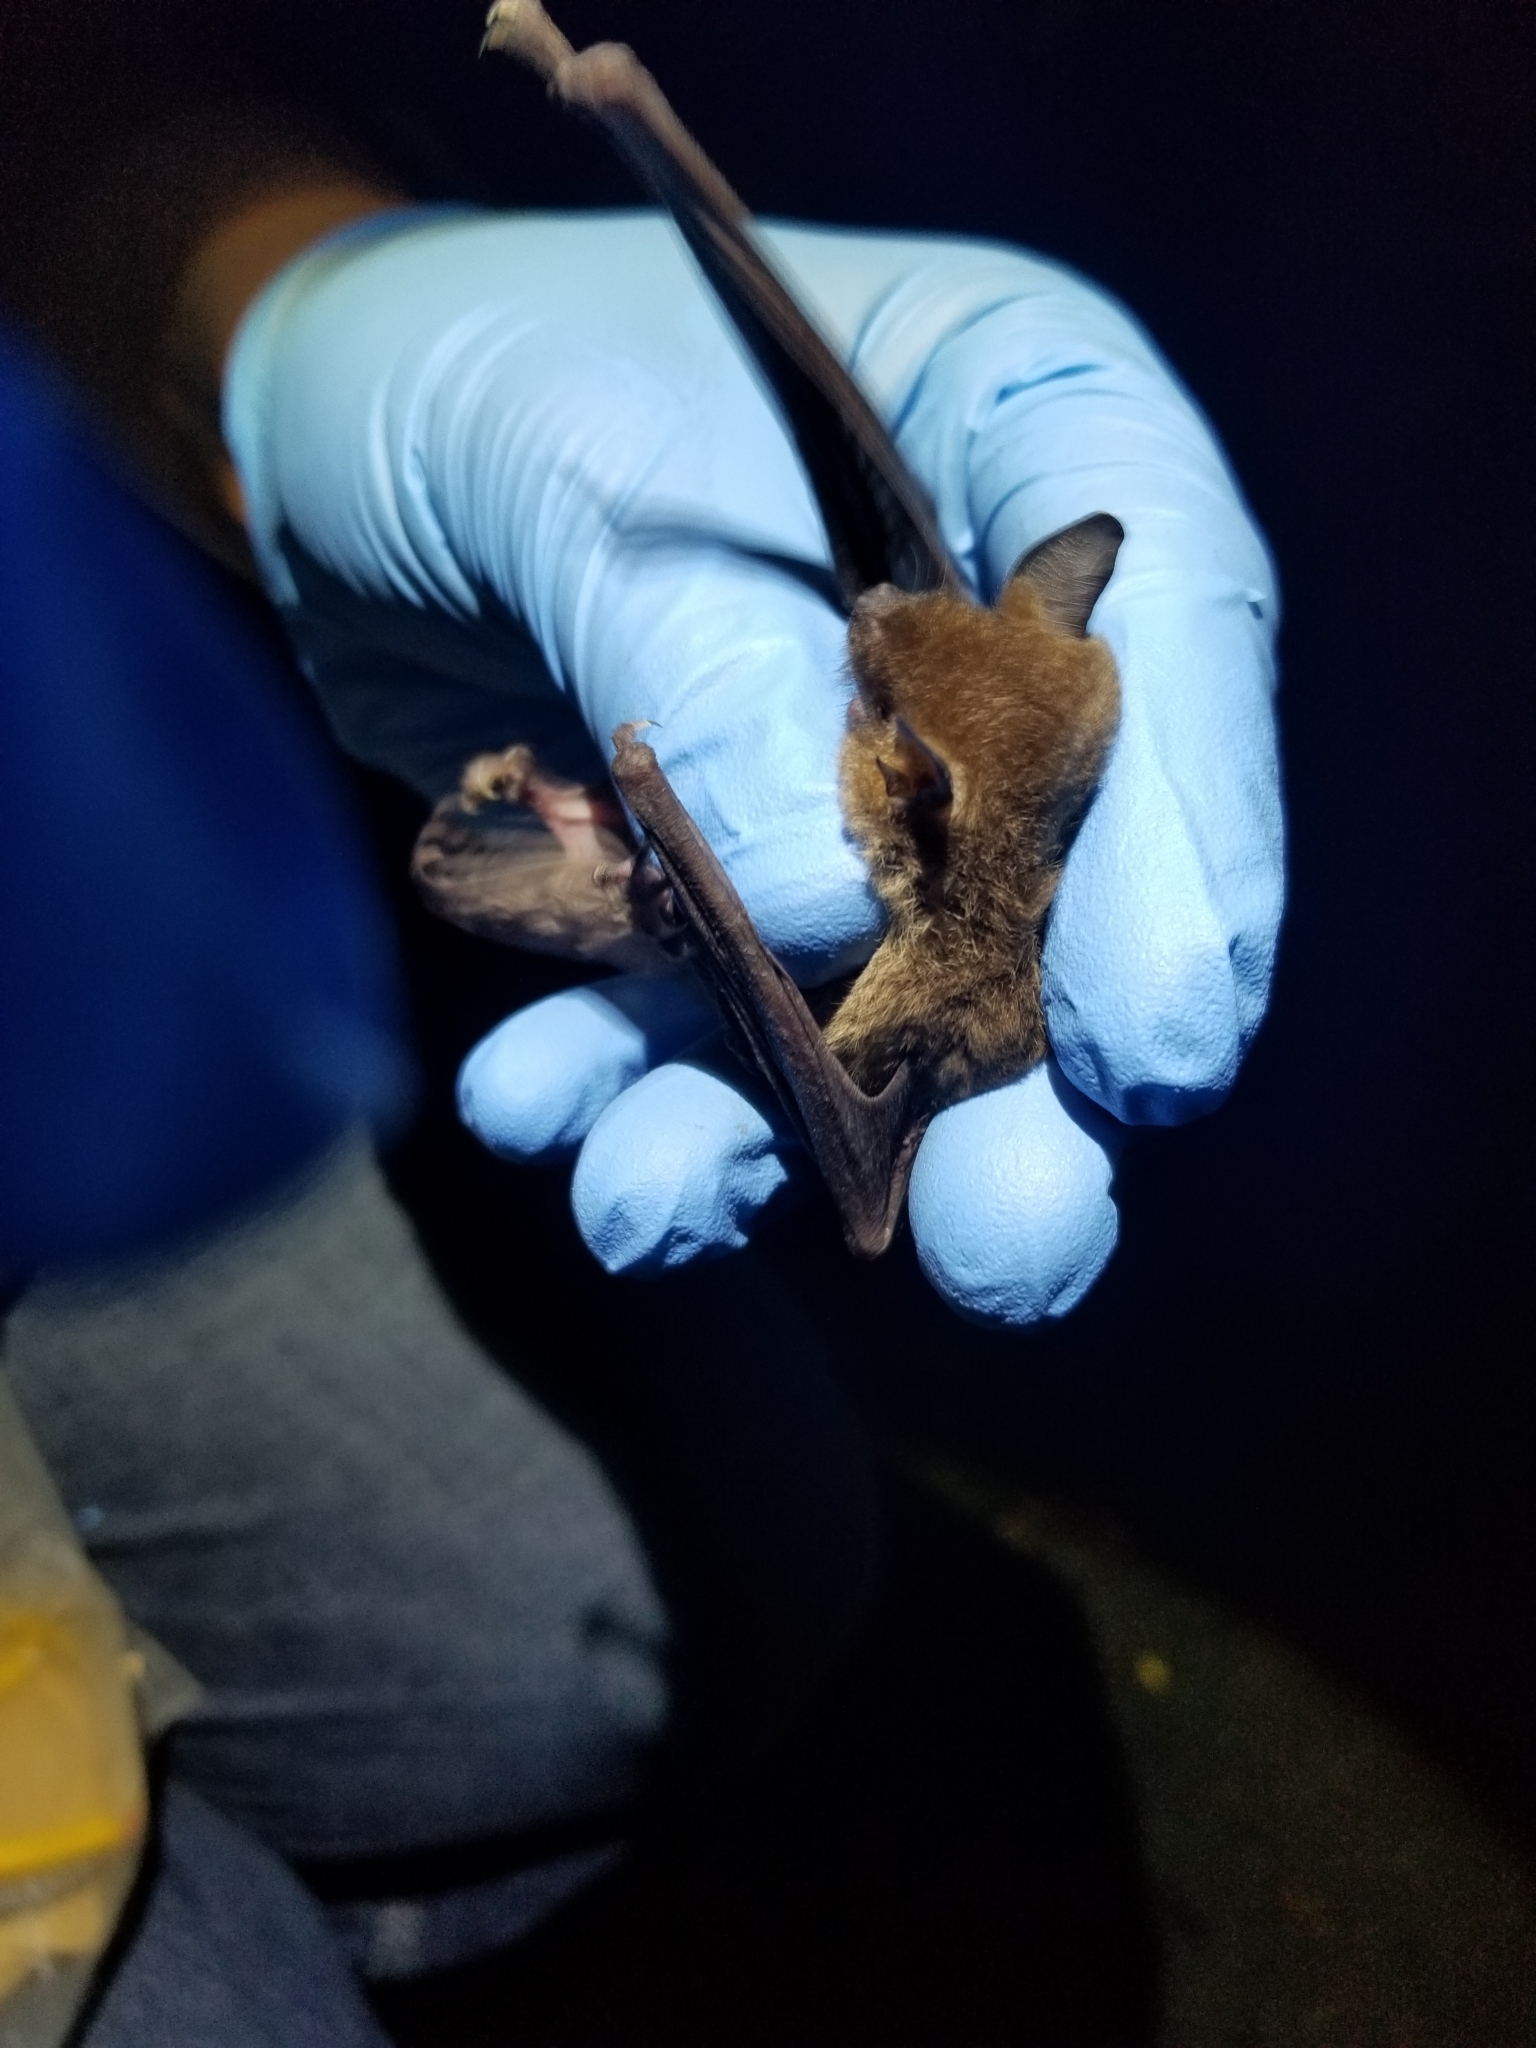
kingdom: Animalia
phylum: Chordata
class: Mammalia
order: Chiroptera
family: Vespertilionidae
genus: Myotis
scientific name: Myotis grisescens
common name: Gray myotis
